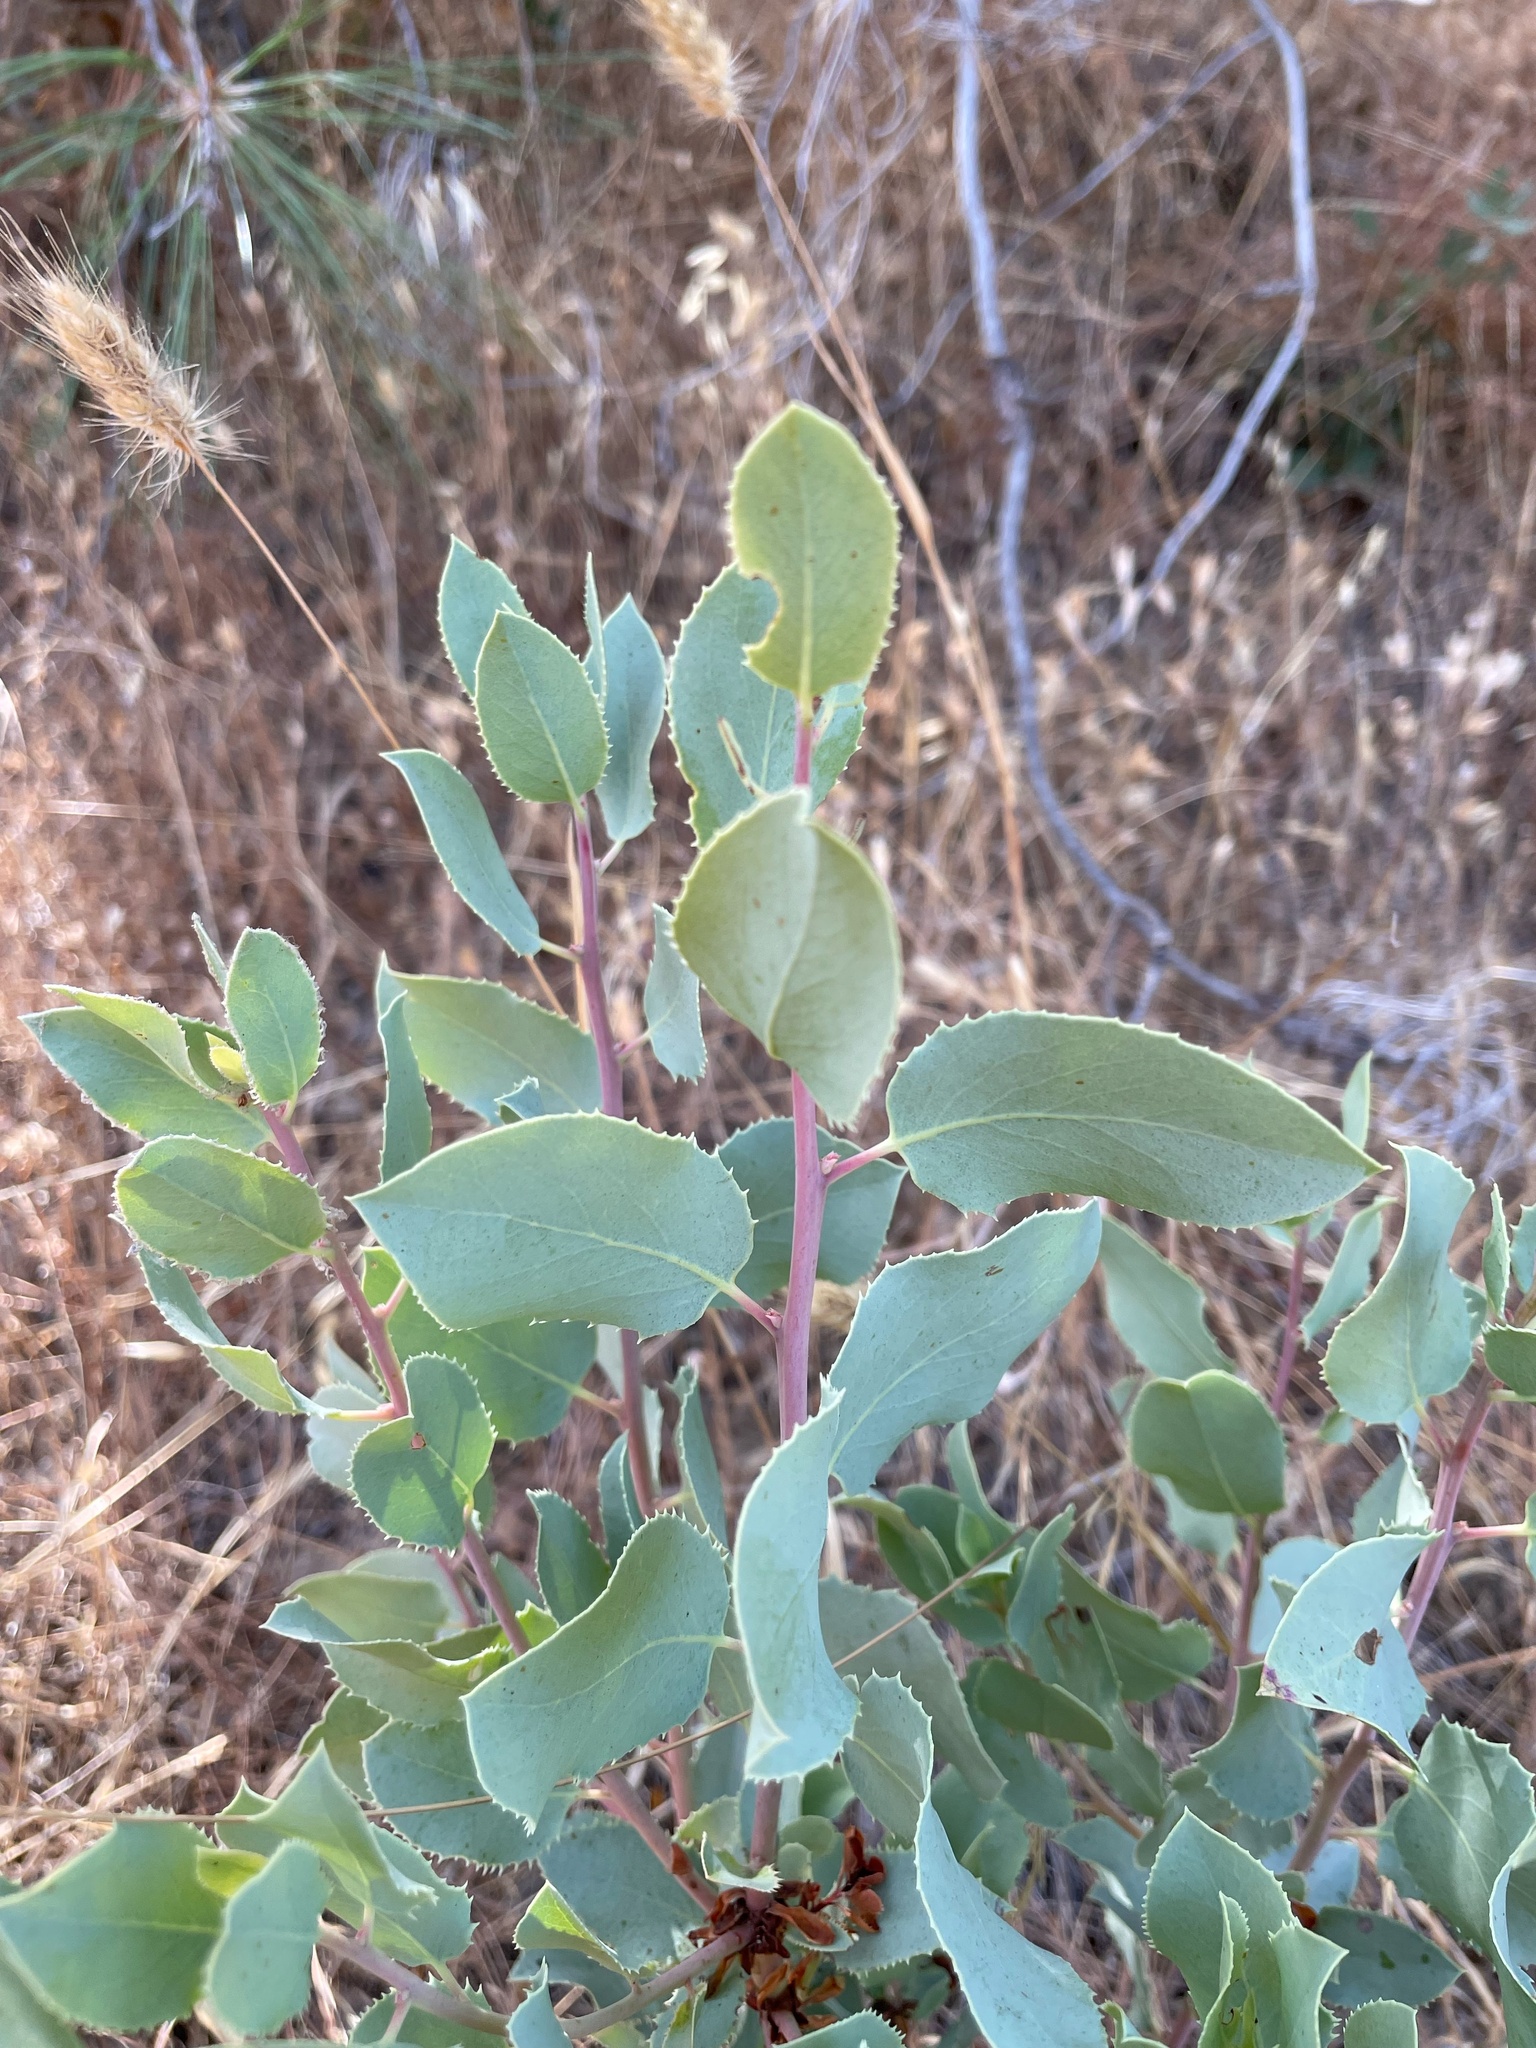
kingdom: Plantae
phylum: Tracheophyta
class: Magnoliopsida
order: Ericales
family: Ericaceae
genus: Arctostaphylos
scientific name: Arctostaphylos glauca
